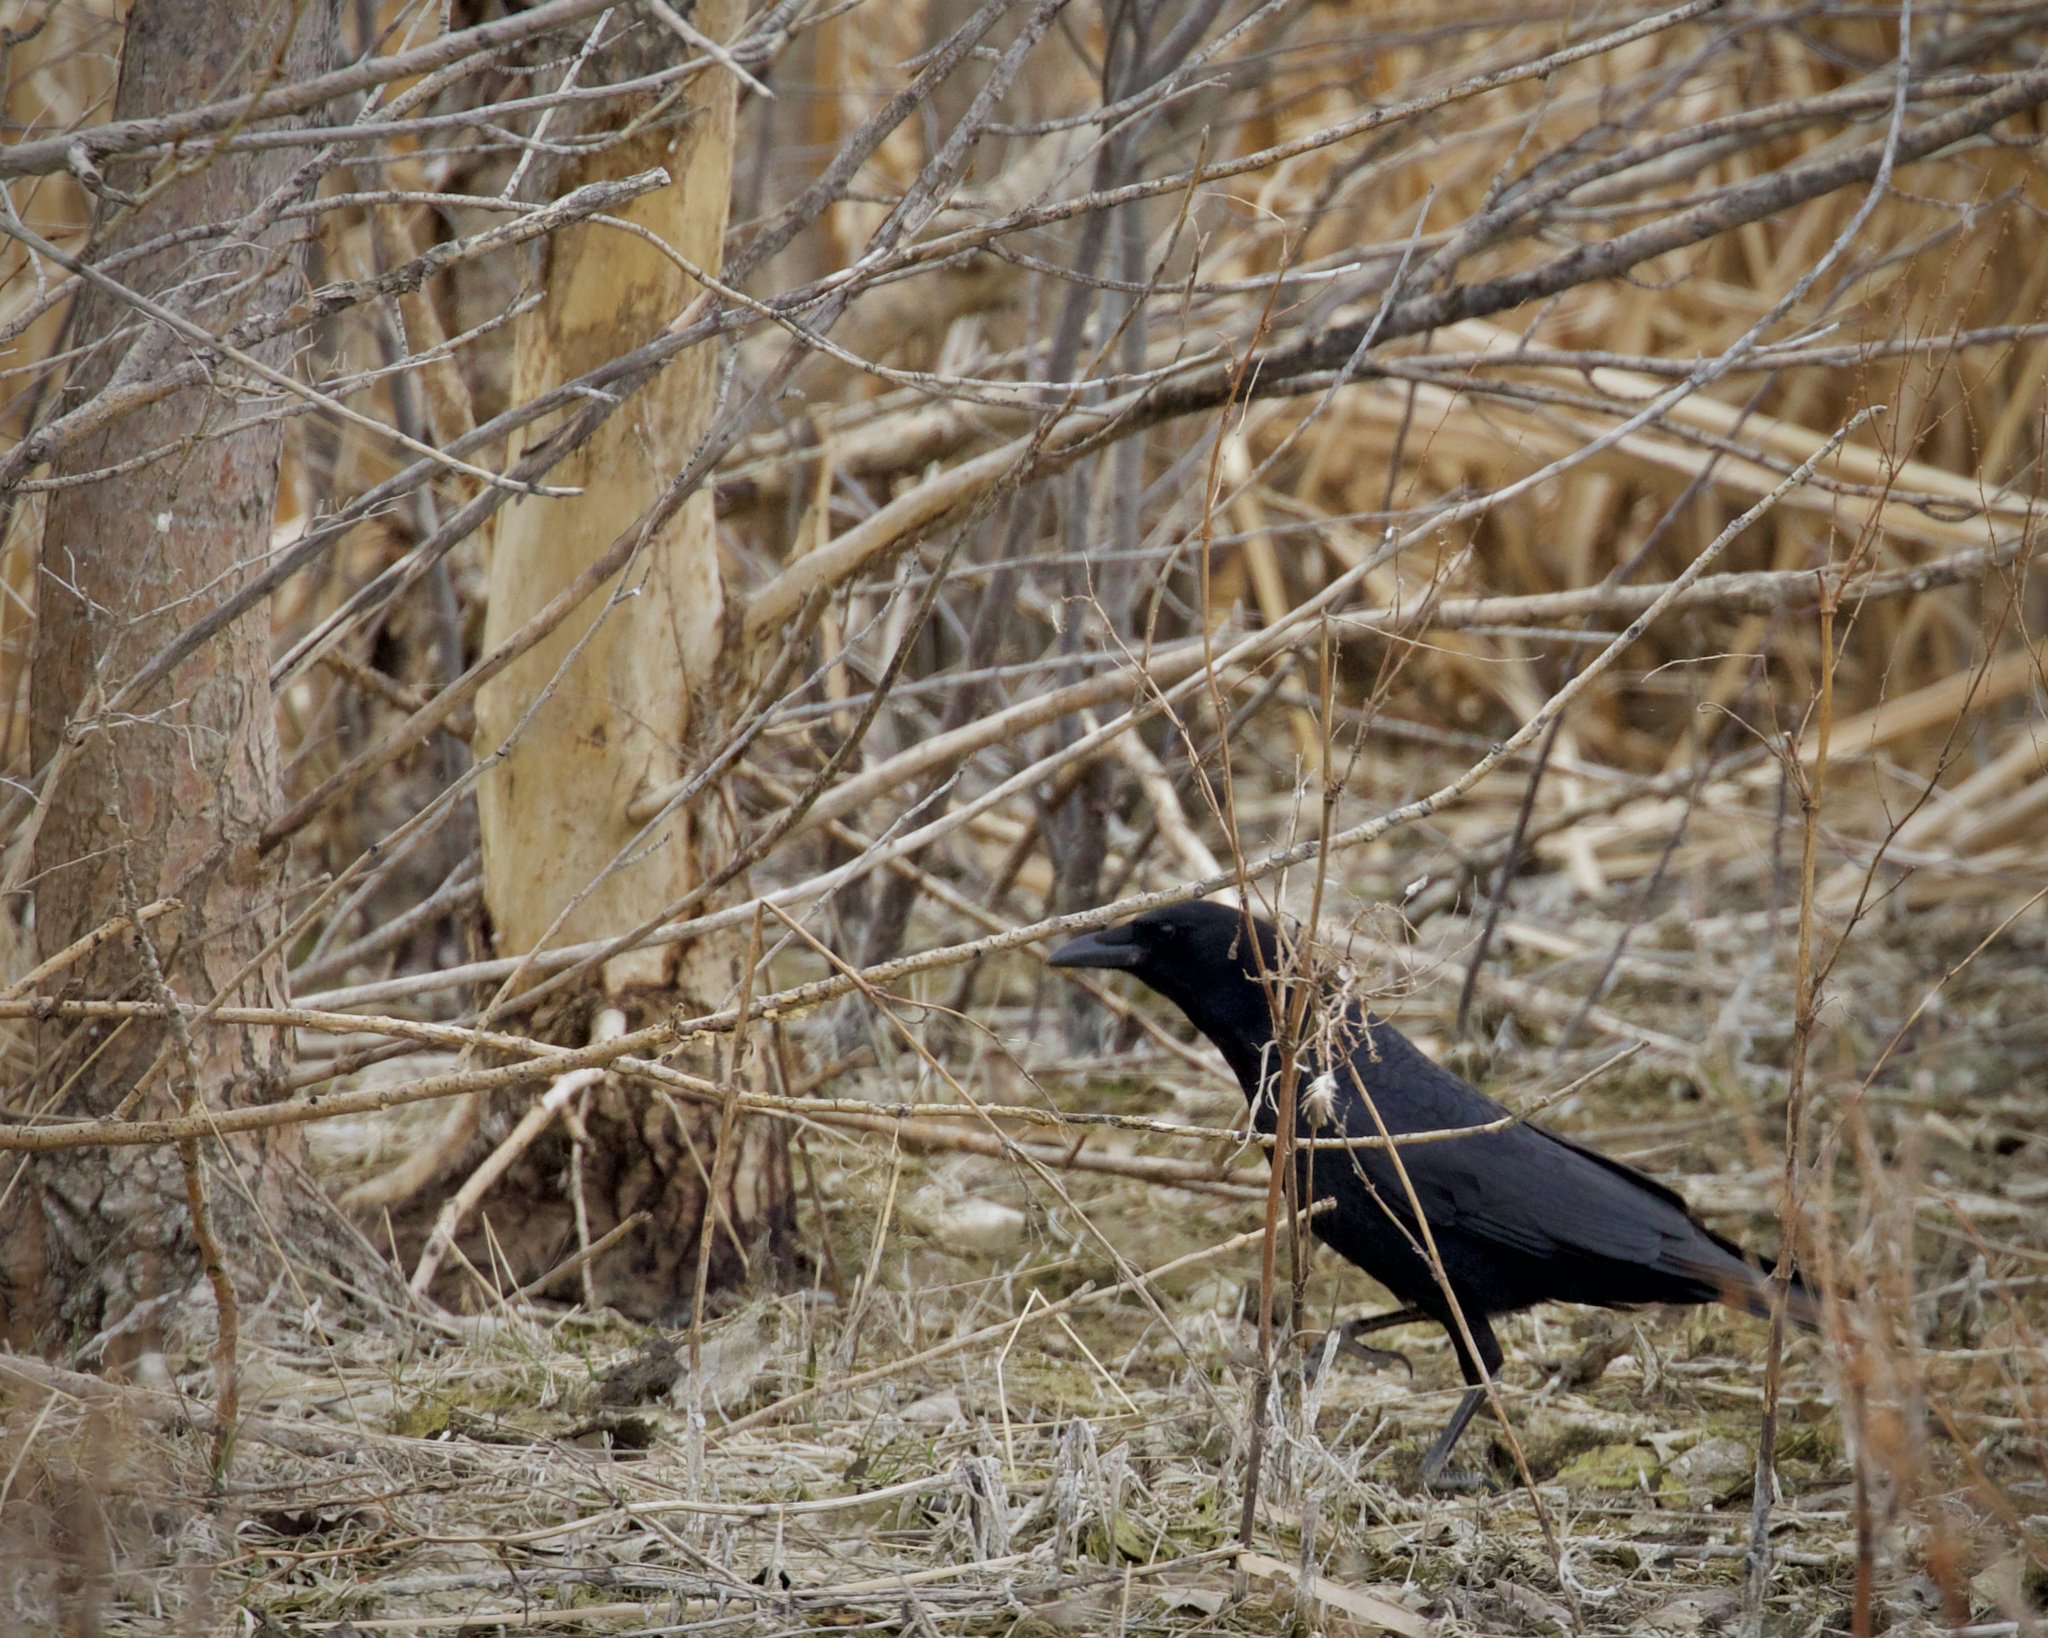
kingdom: Animalia
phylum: Chordata
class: Aves
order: Passeriformes
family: Corvidae
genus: Corvus
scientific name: Corvus brachyrhynchos
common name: American crow
